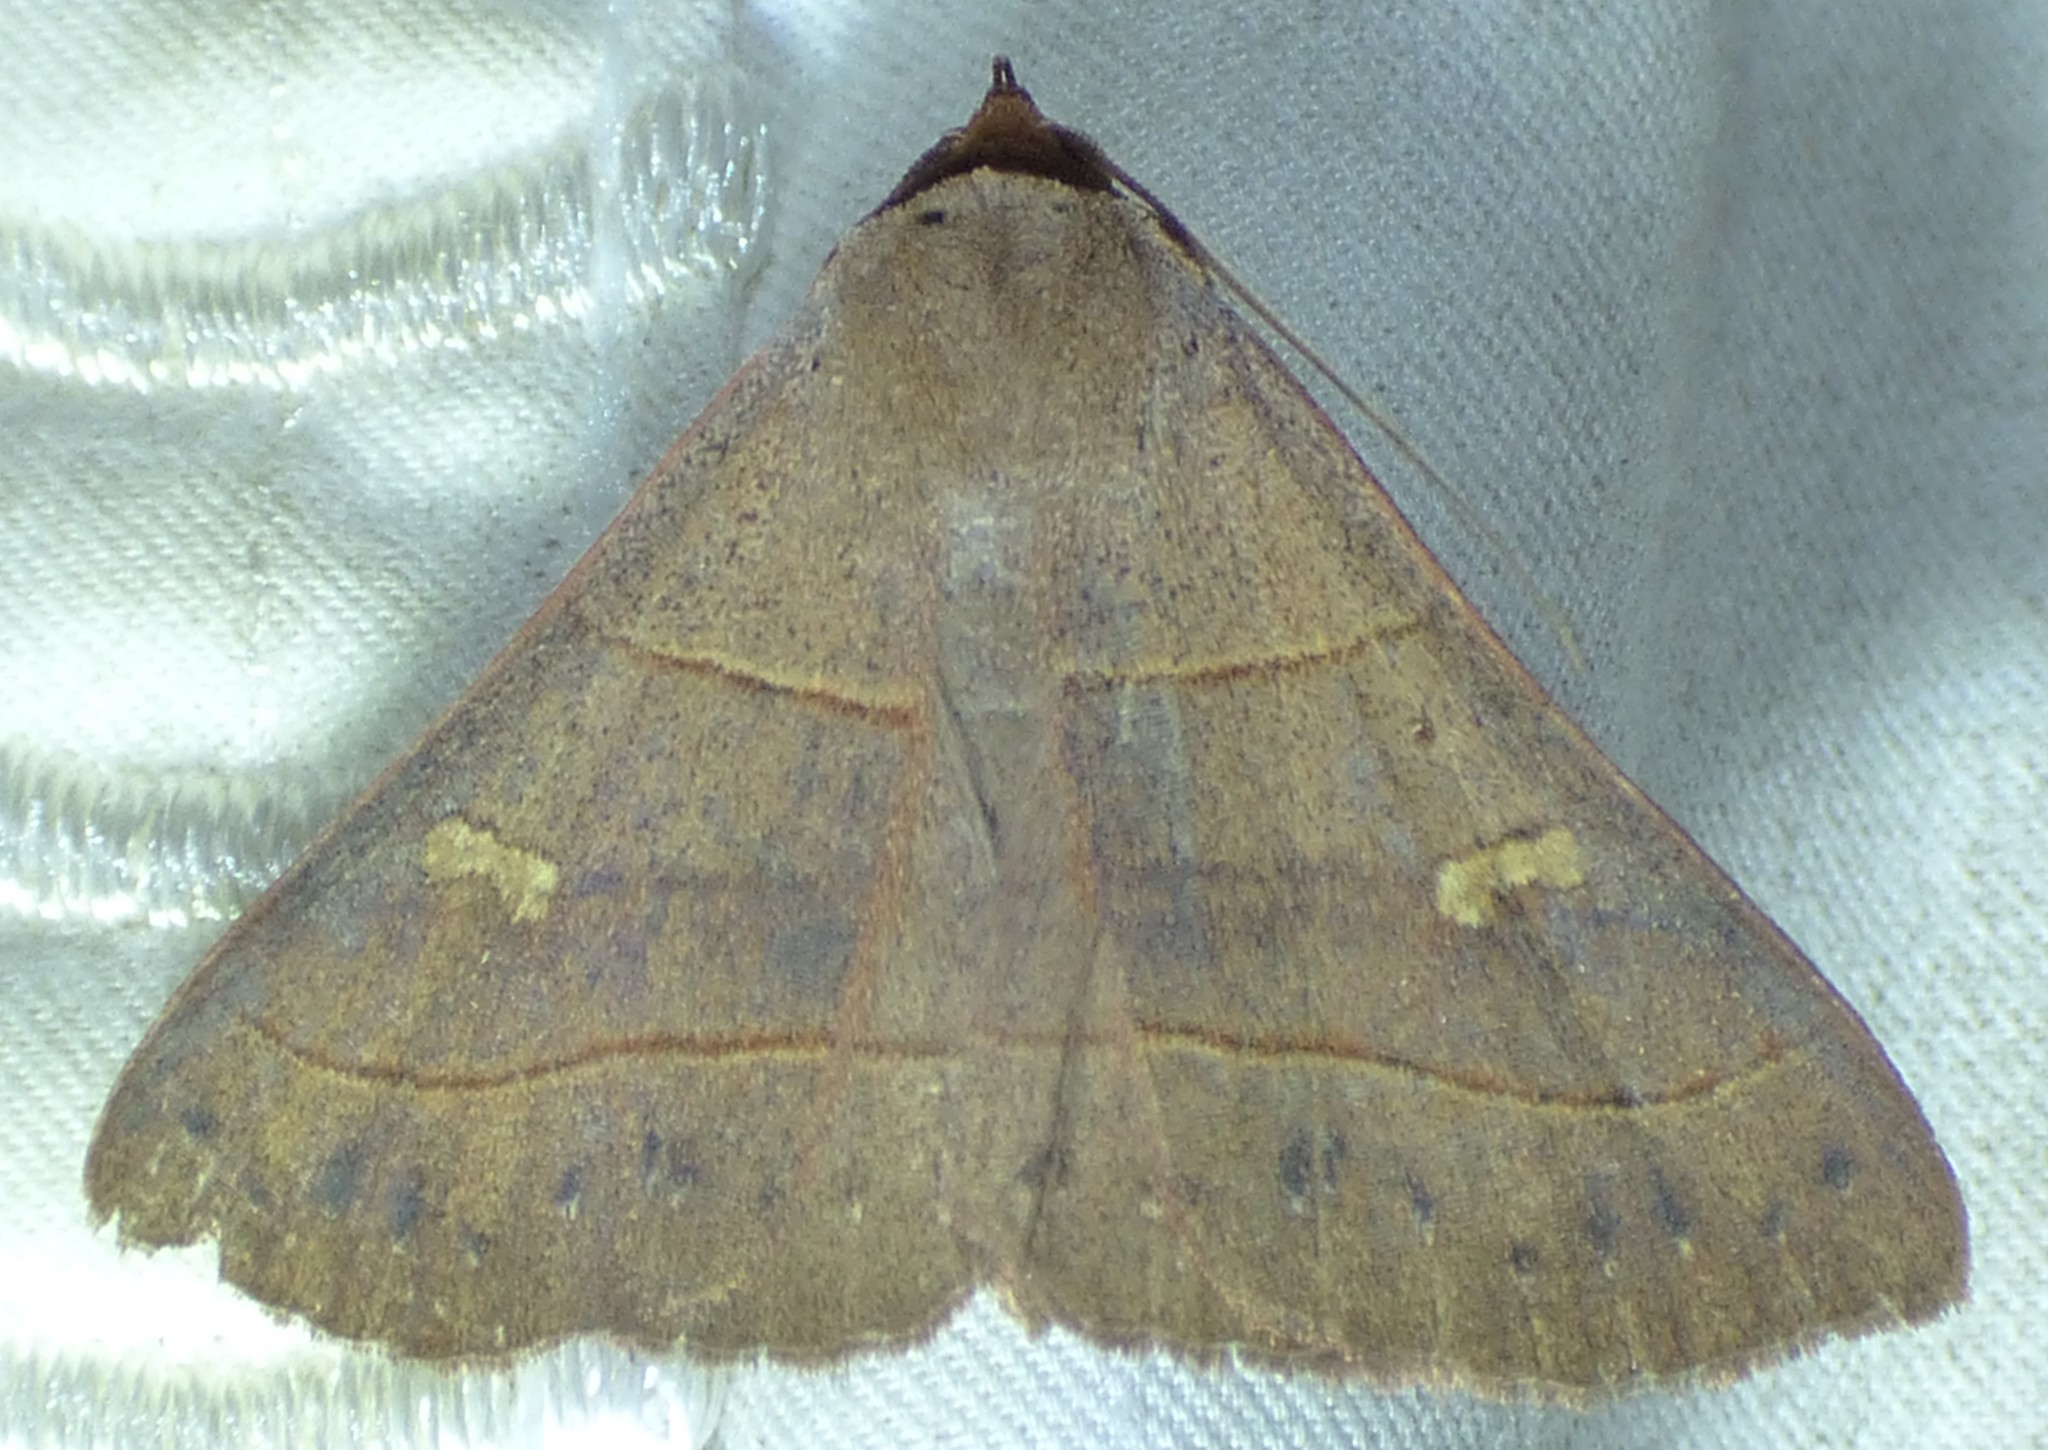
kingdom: Animalia
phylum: Arthropoda
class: Insecta
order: Lepidoptera
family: Erebidae
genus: Panopoda
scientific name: Panopoda rufimargo
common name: Red-lined panopoda moth
